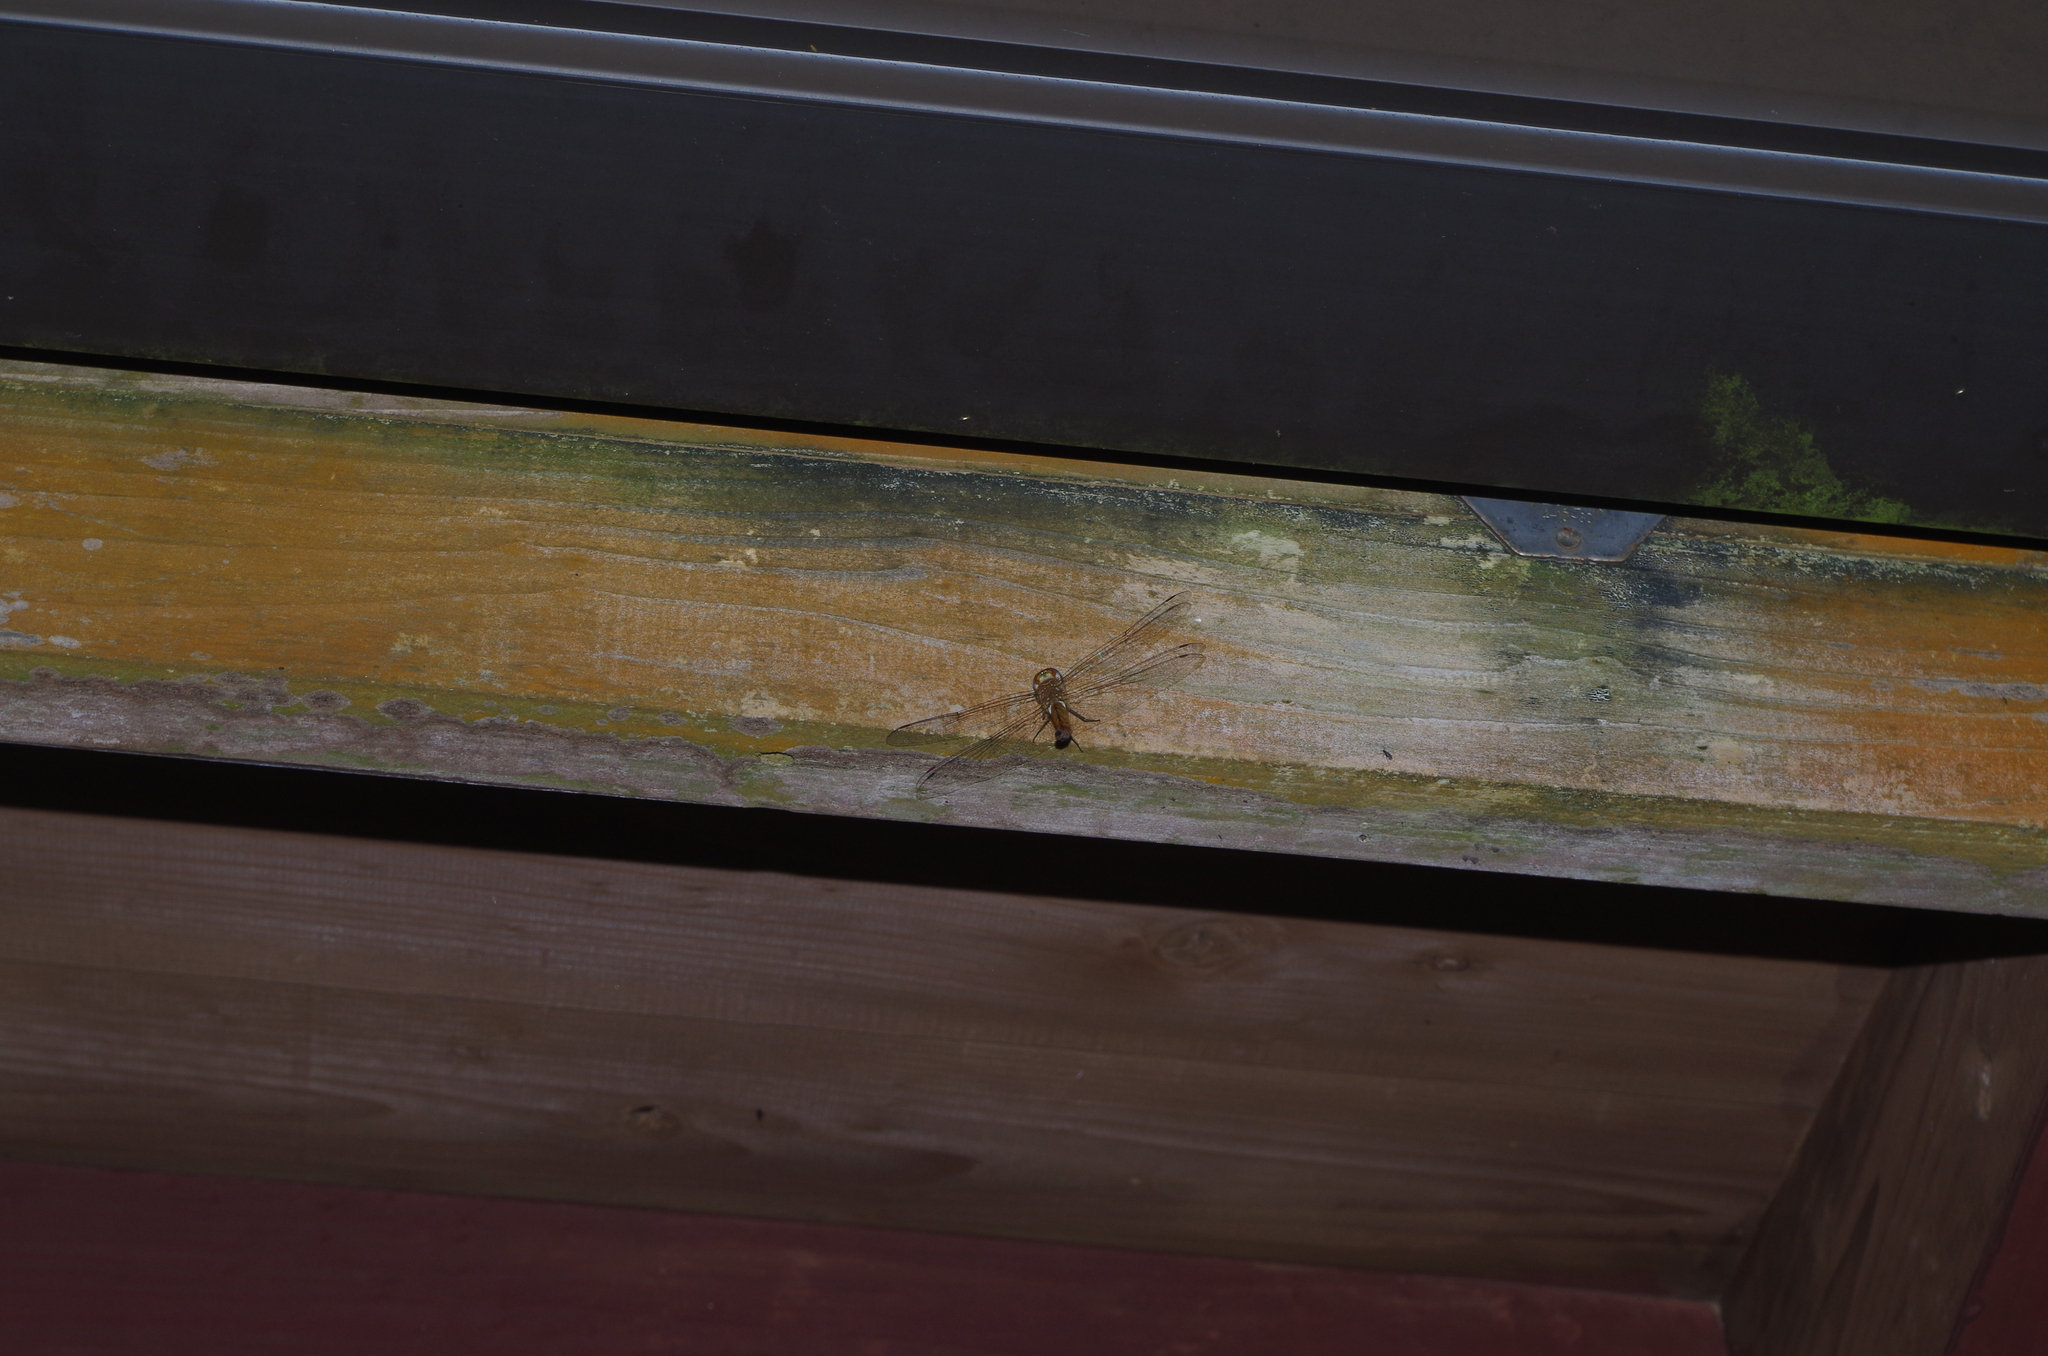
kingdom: Animalia
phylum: Arthropoda
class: Insecta
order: Odonata
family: Libellulidae
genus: Pantala
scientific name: Pantala flavescens
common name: Wandering glider
